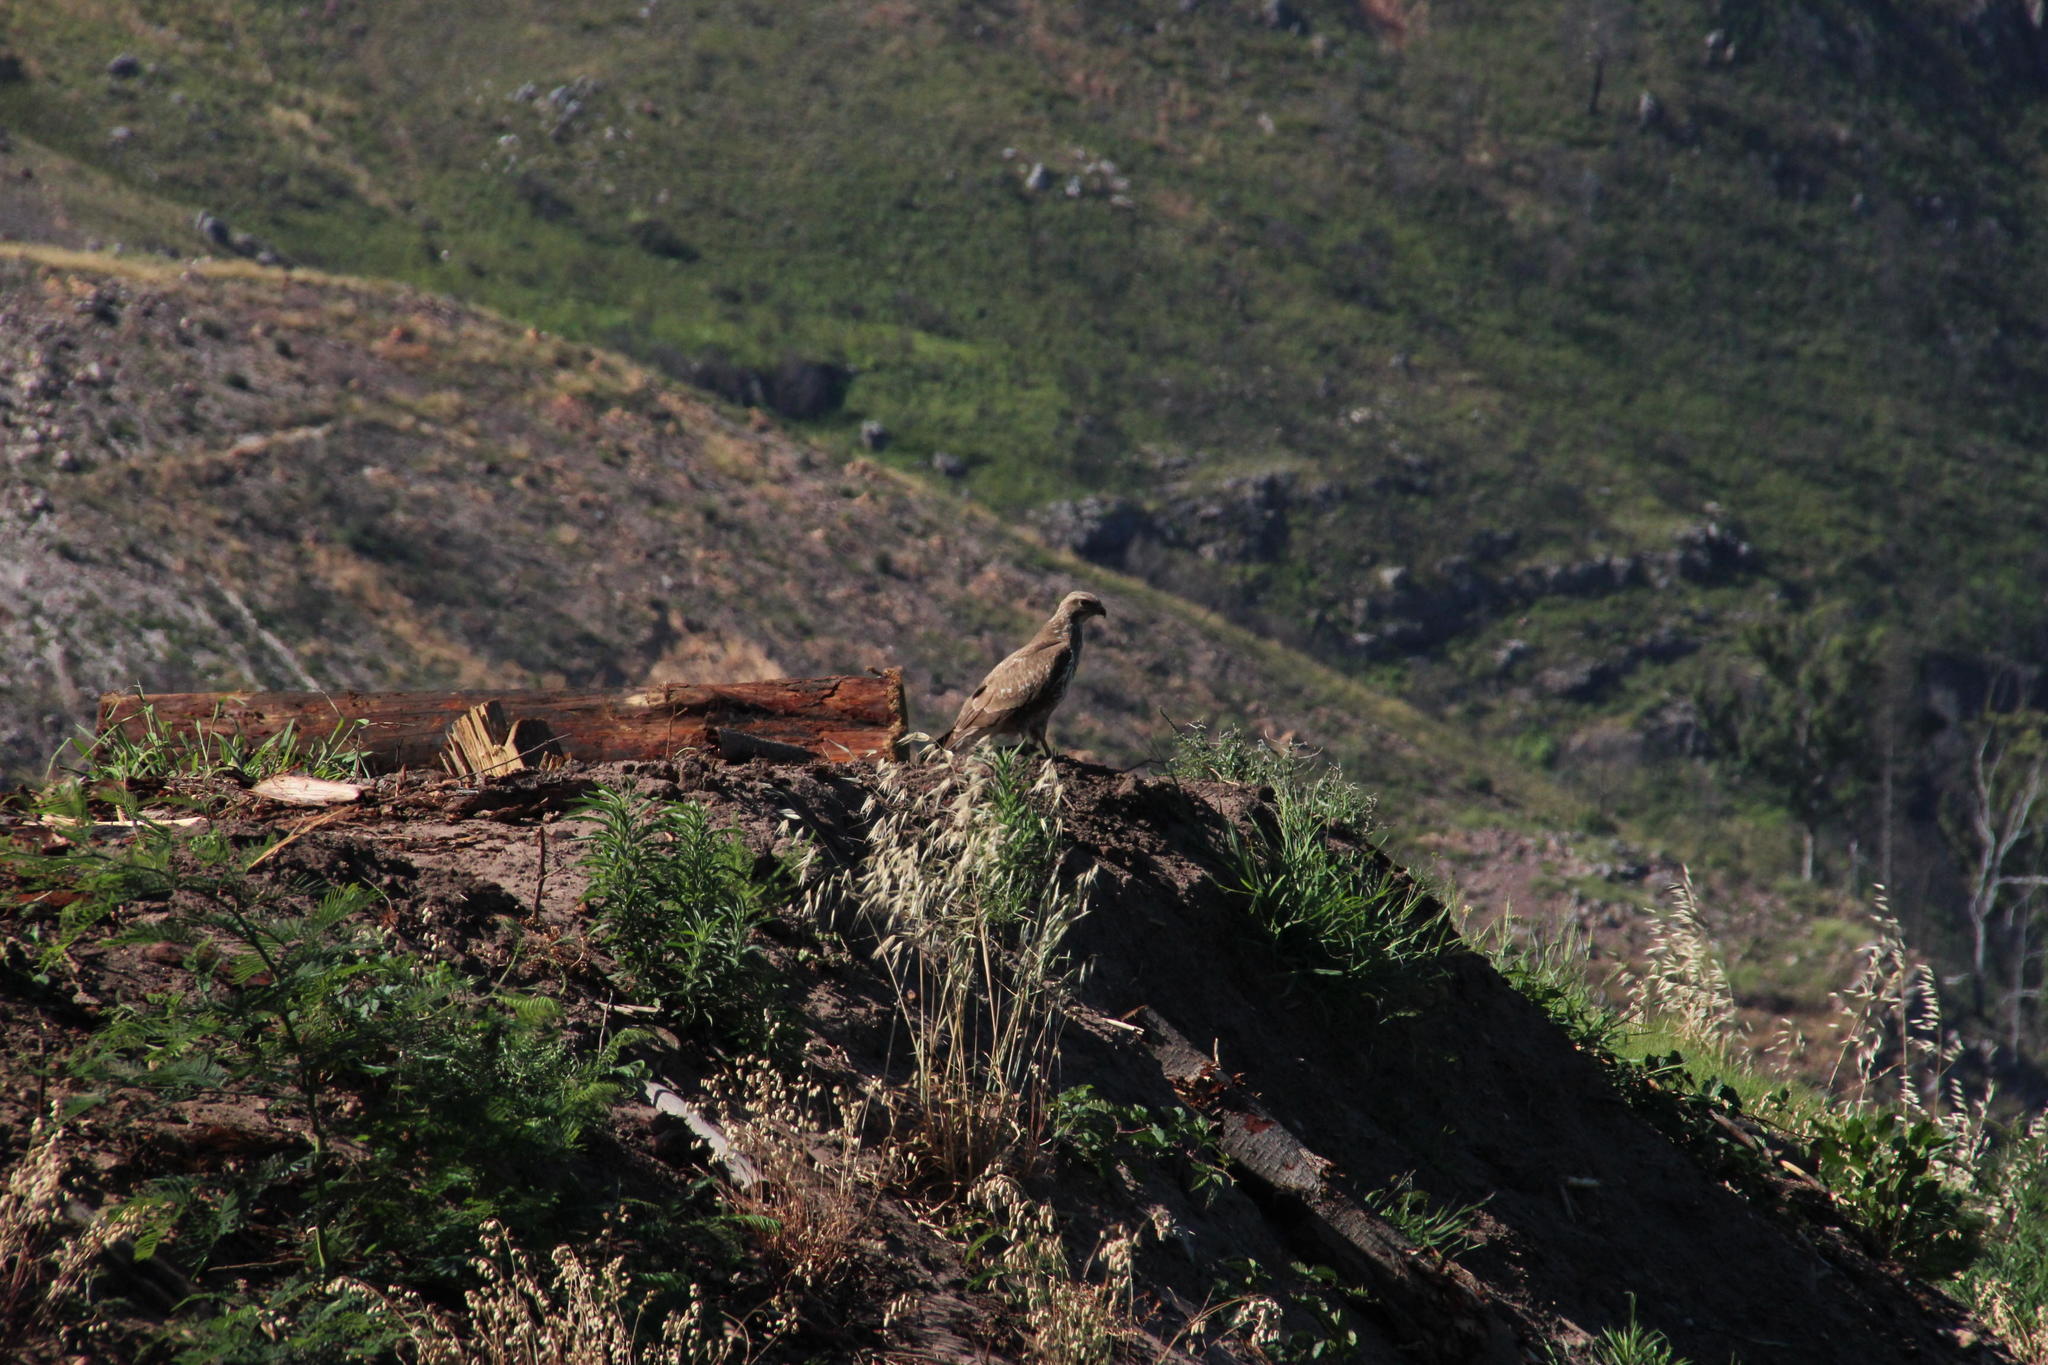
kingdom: Animalia
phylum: Chordata
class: Aves
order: Accipitriformes
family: Accipitridae
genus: Buteo
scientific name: Buteo buteo
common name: Common buzzard
